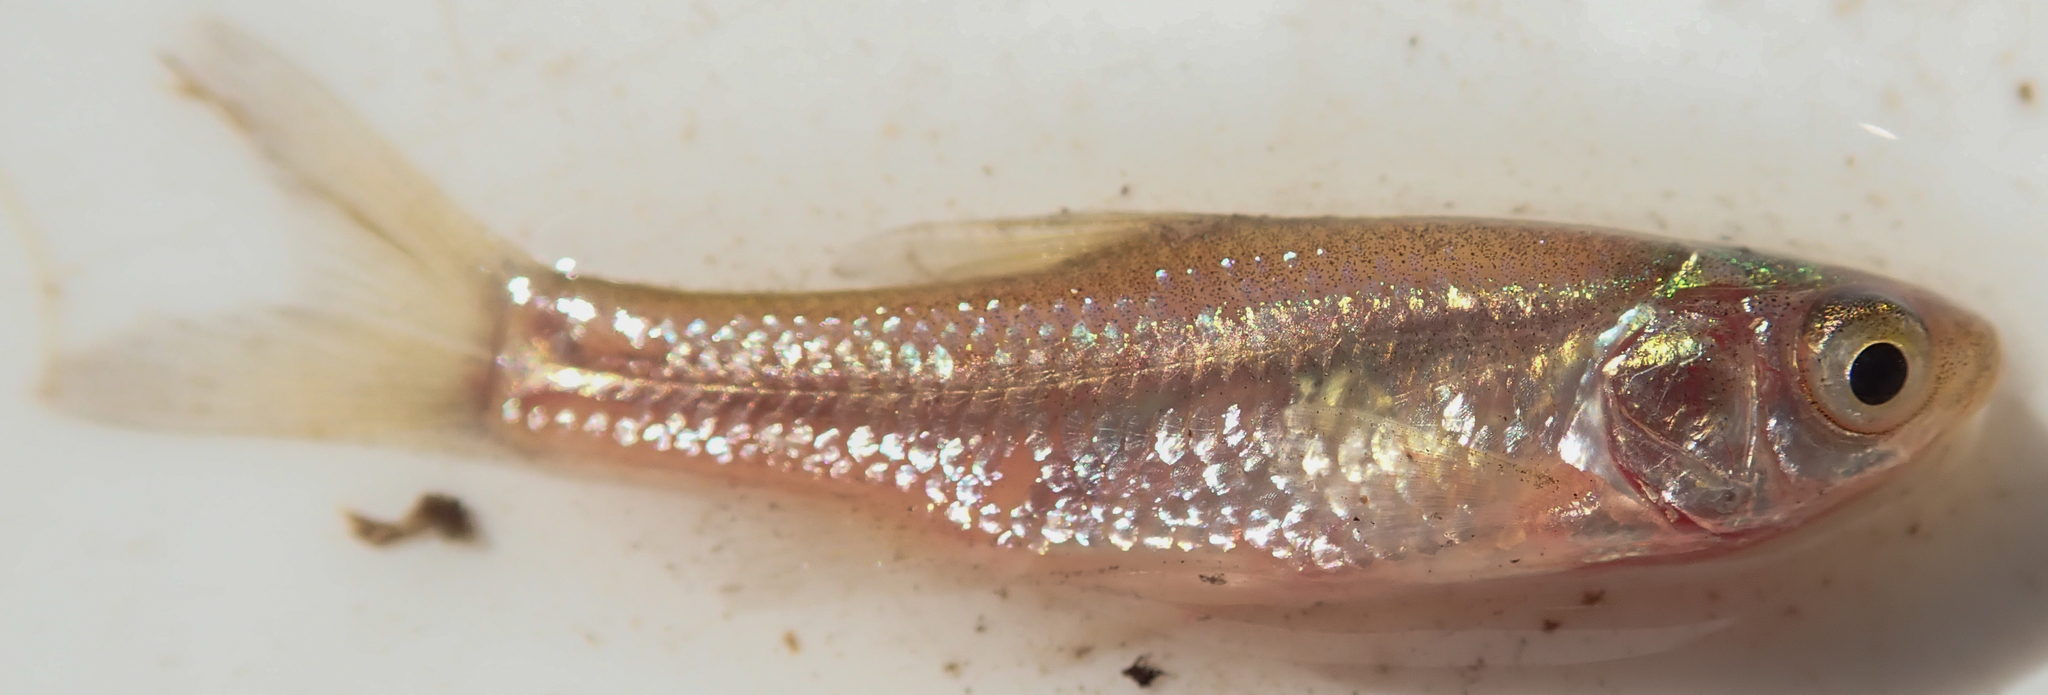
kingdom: Animalia
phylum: Chordata
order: Cypriniformes
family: Cyprinidae
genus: Enteromius
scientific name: Enteromius paludinosus
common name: Straightfin barb
